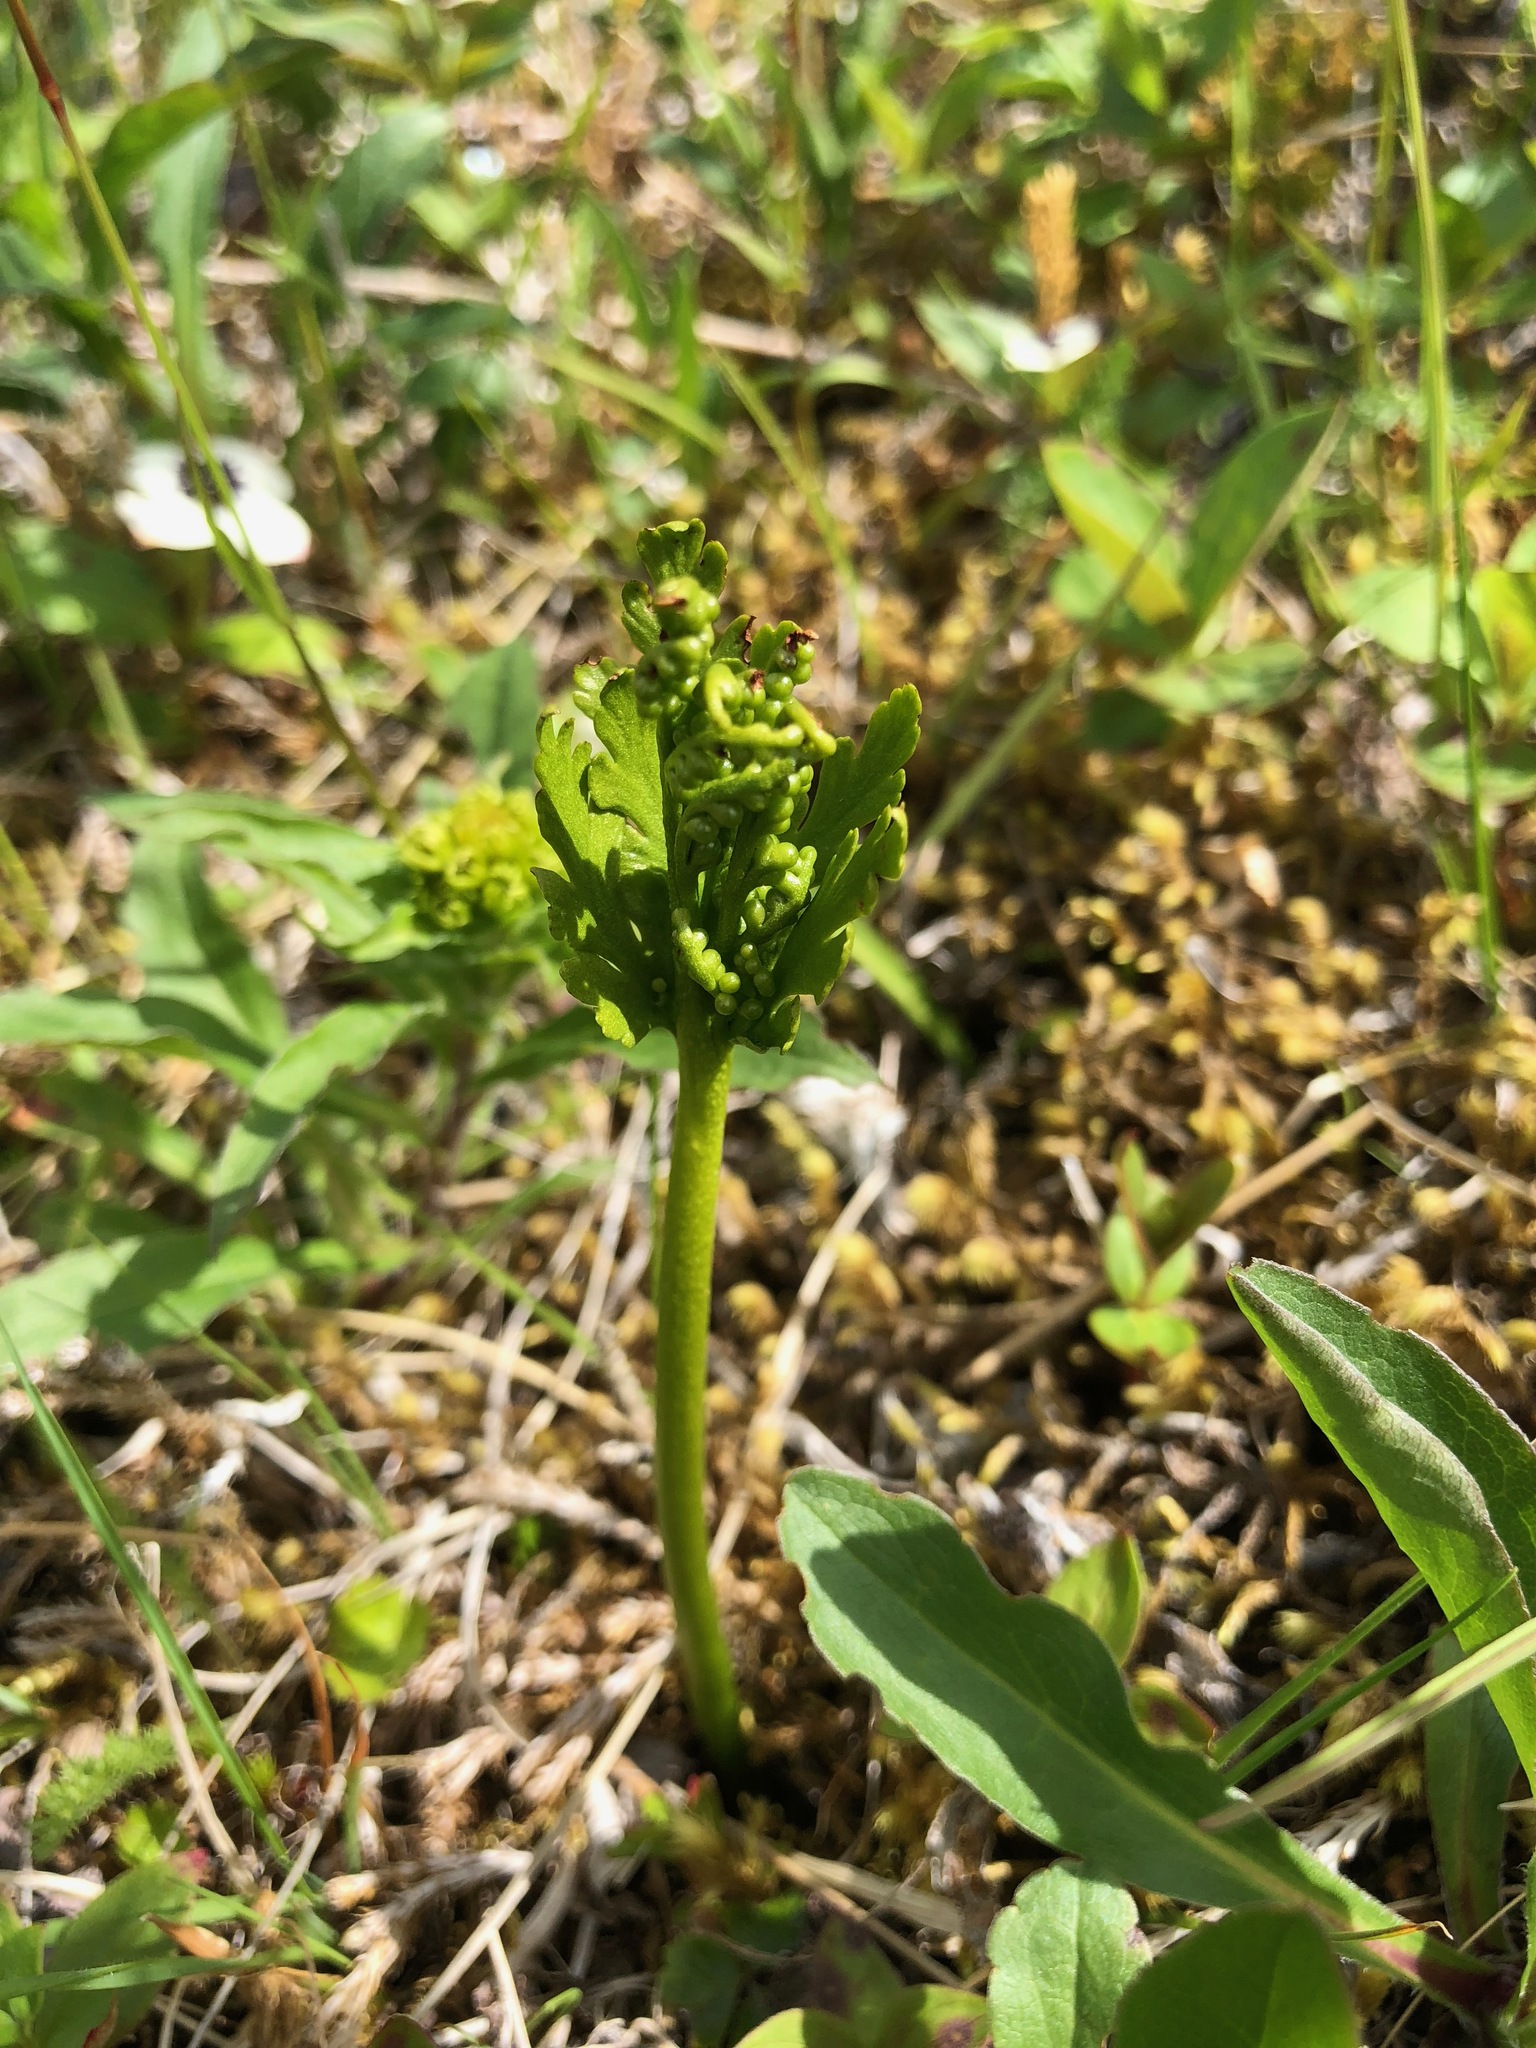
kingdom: Plantae
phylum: Tracheophyta
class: Polypodiopsida
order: Ophioglossales
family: Ophioglossaceae
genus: Botrychium
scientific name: Botrychium lanceolatum
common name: Lance-leaved moonwort
